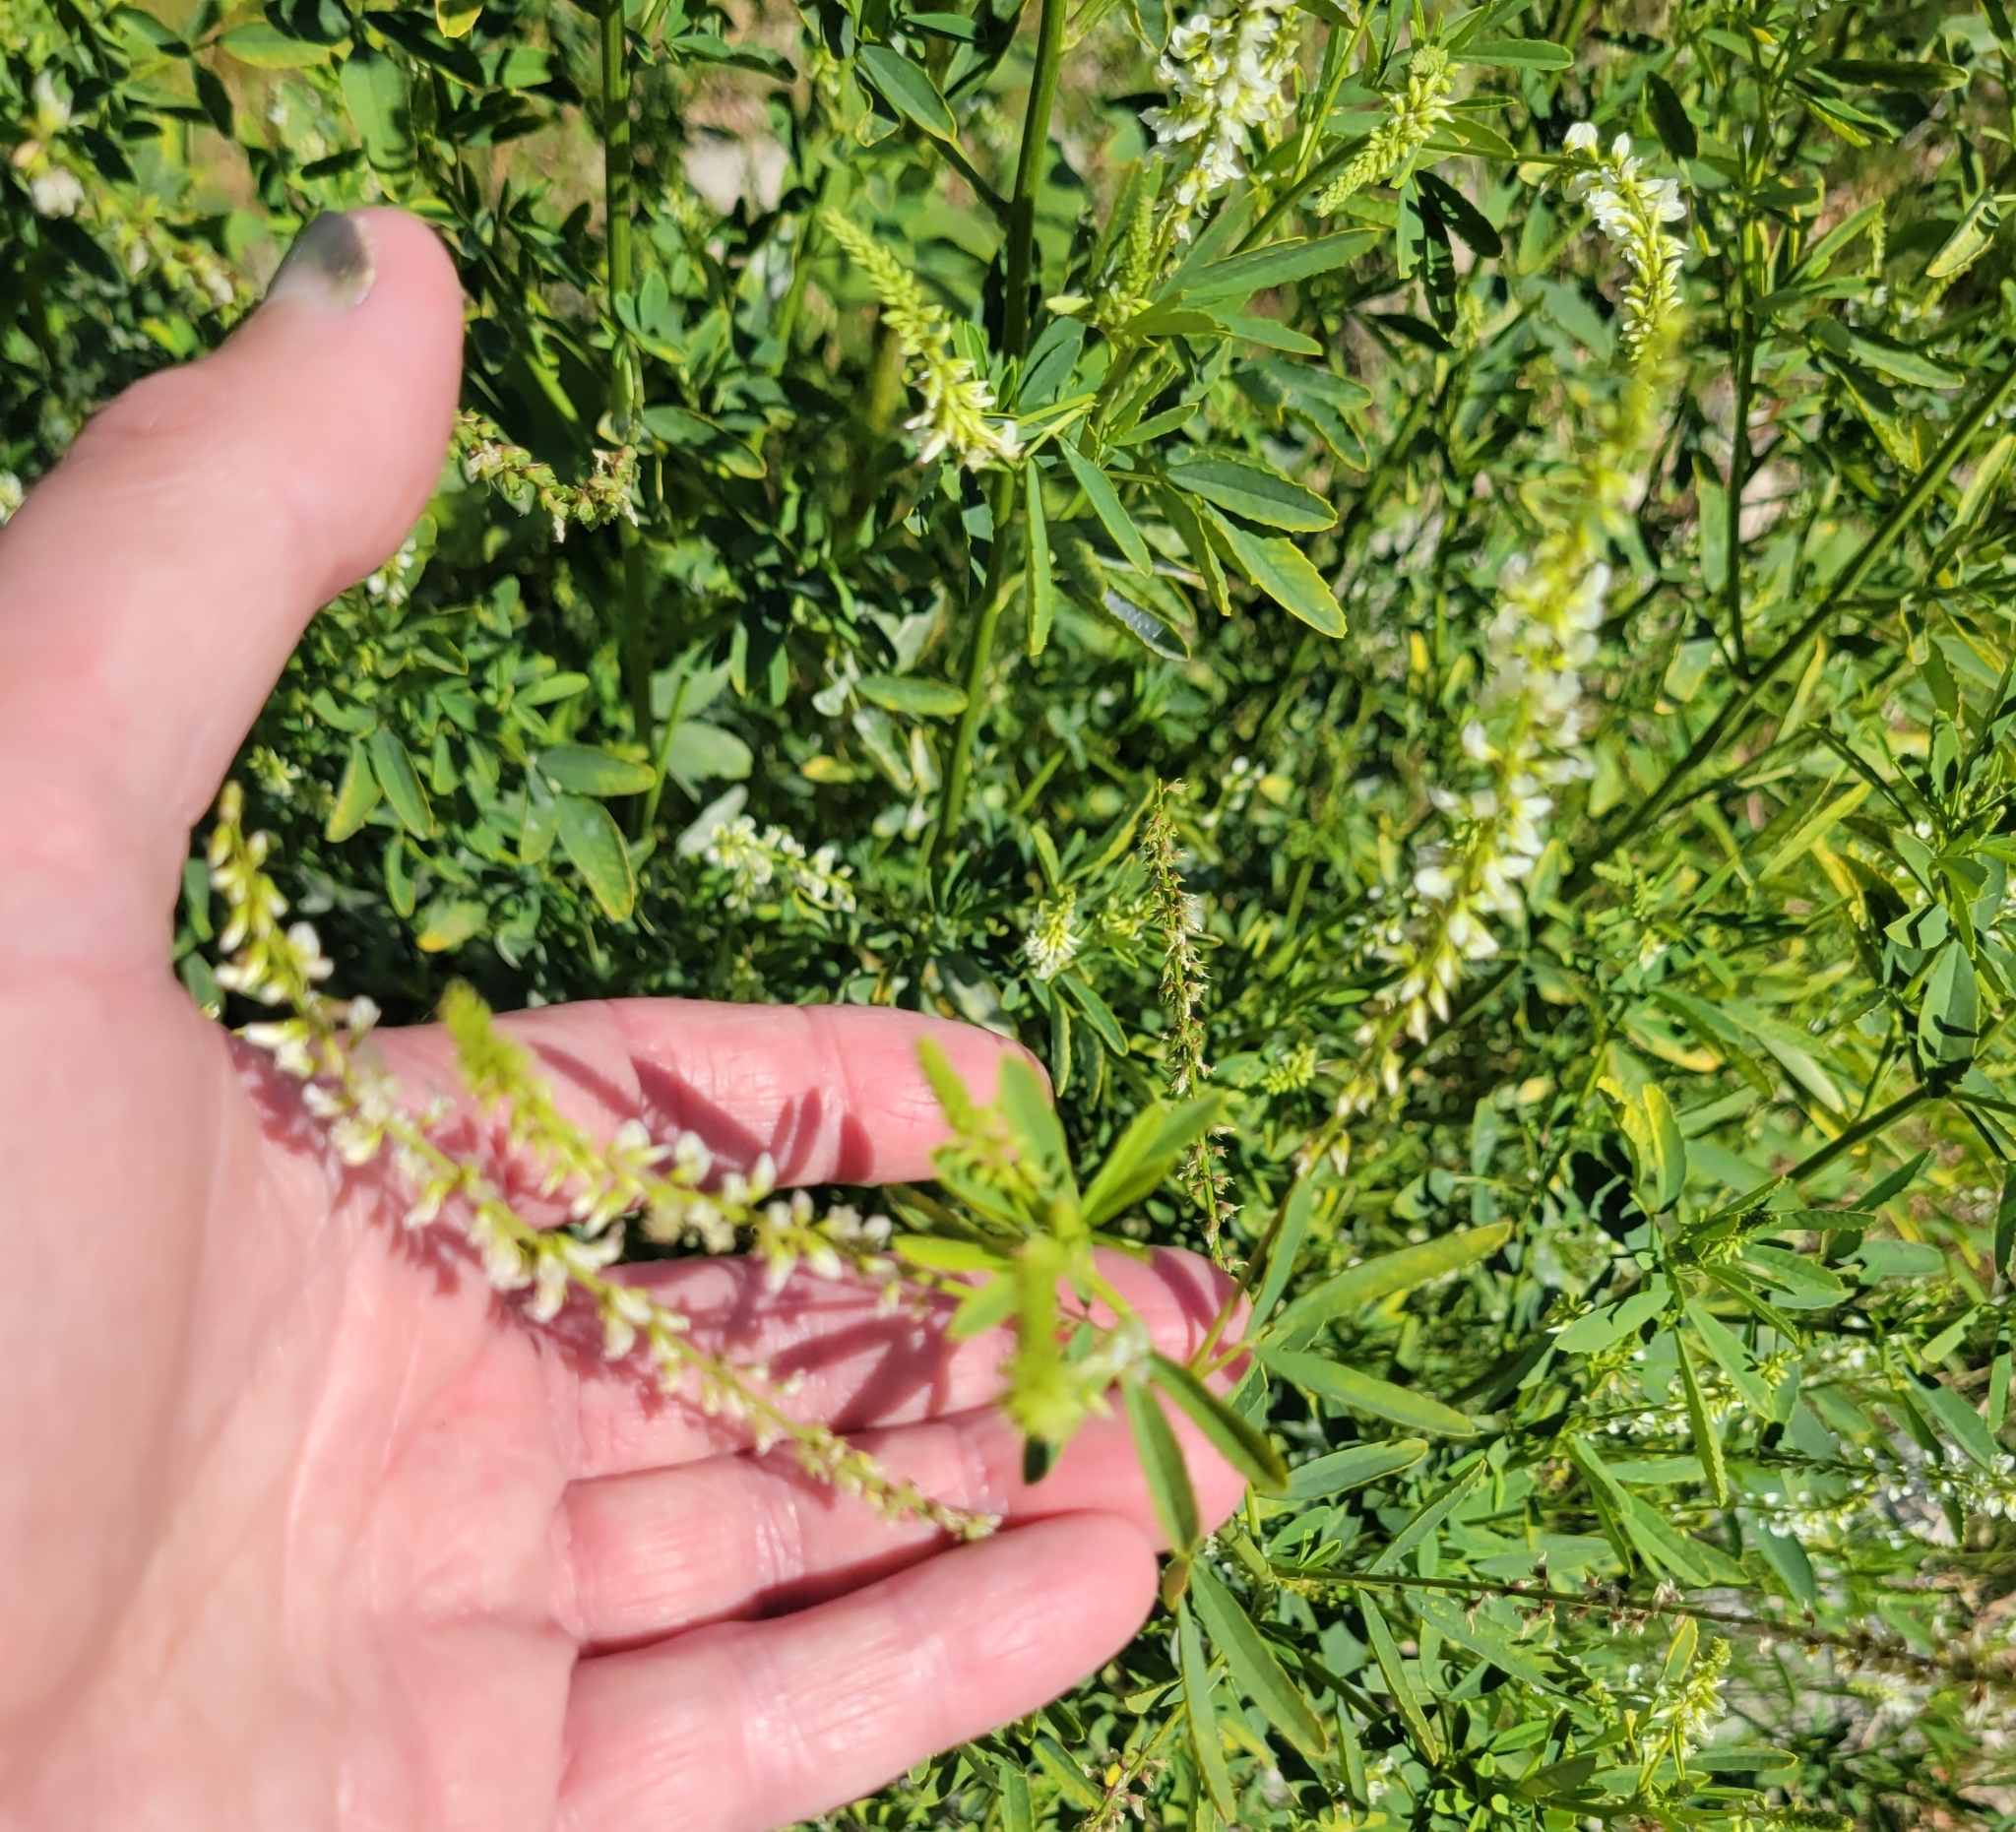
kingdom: Plantae
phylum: Tracheophyta
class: Magnoliopsida
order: Fabales
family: Fabaceae
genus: Melilotus
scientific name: Melilotus albus
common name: White melilot
